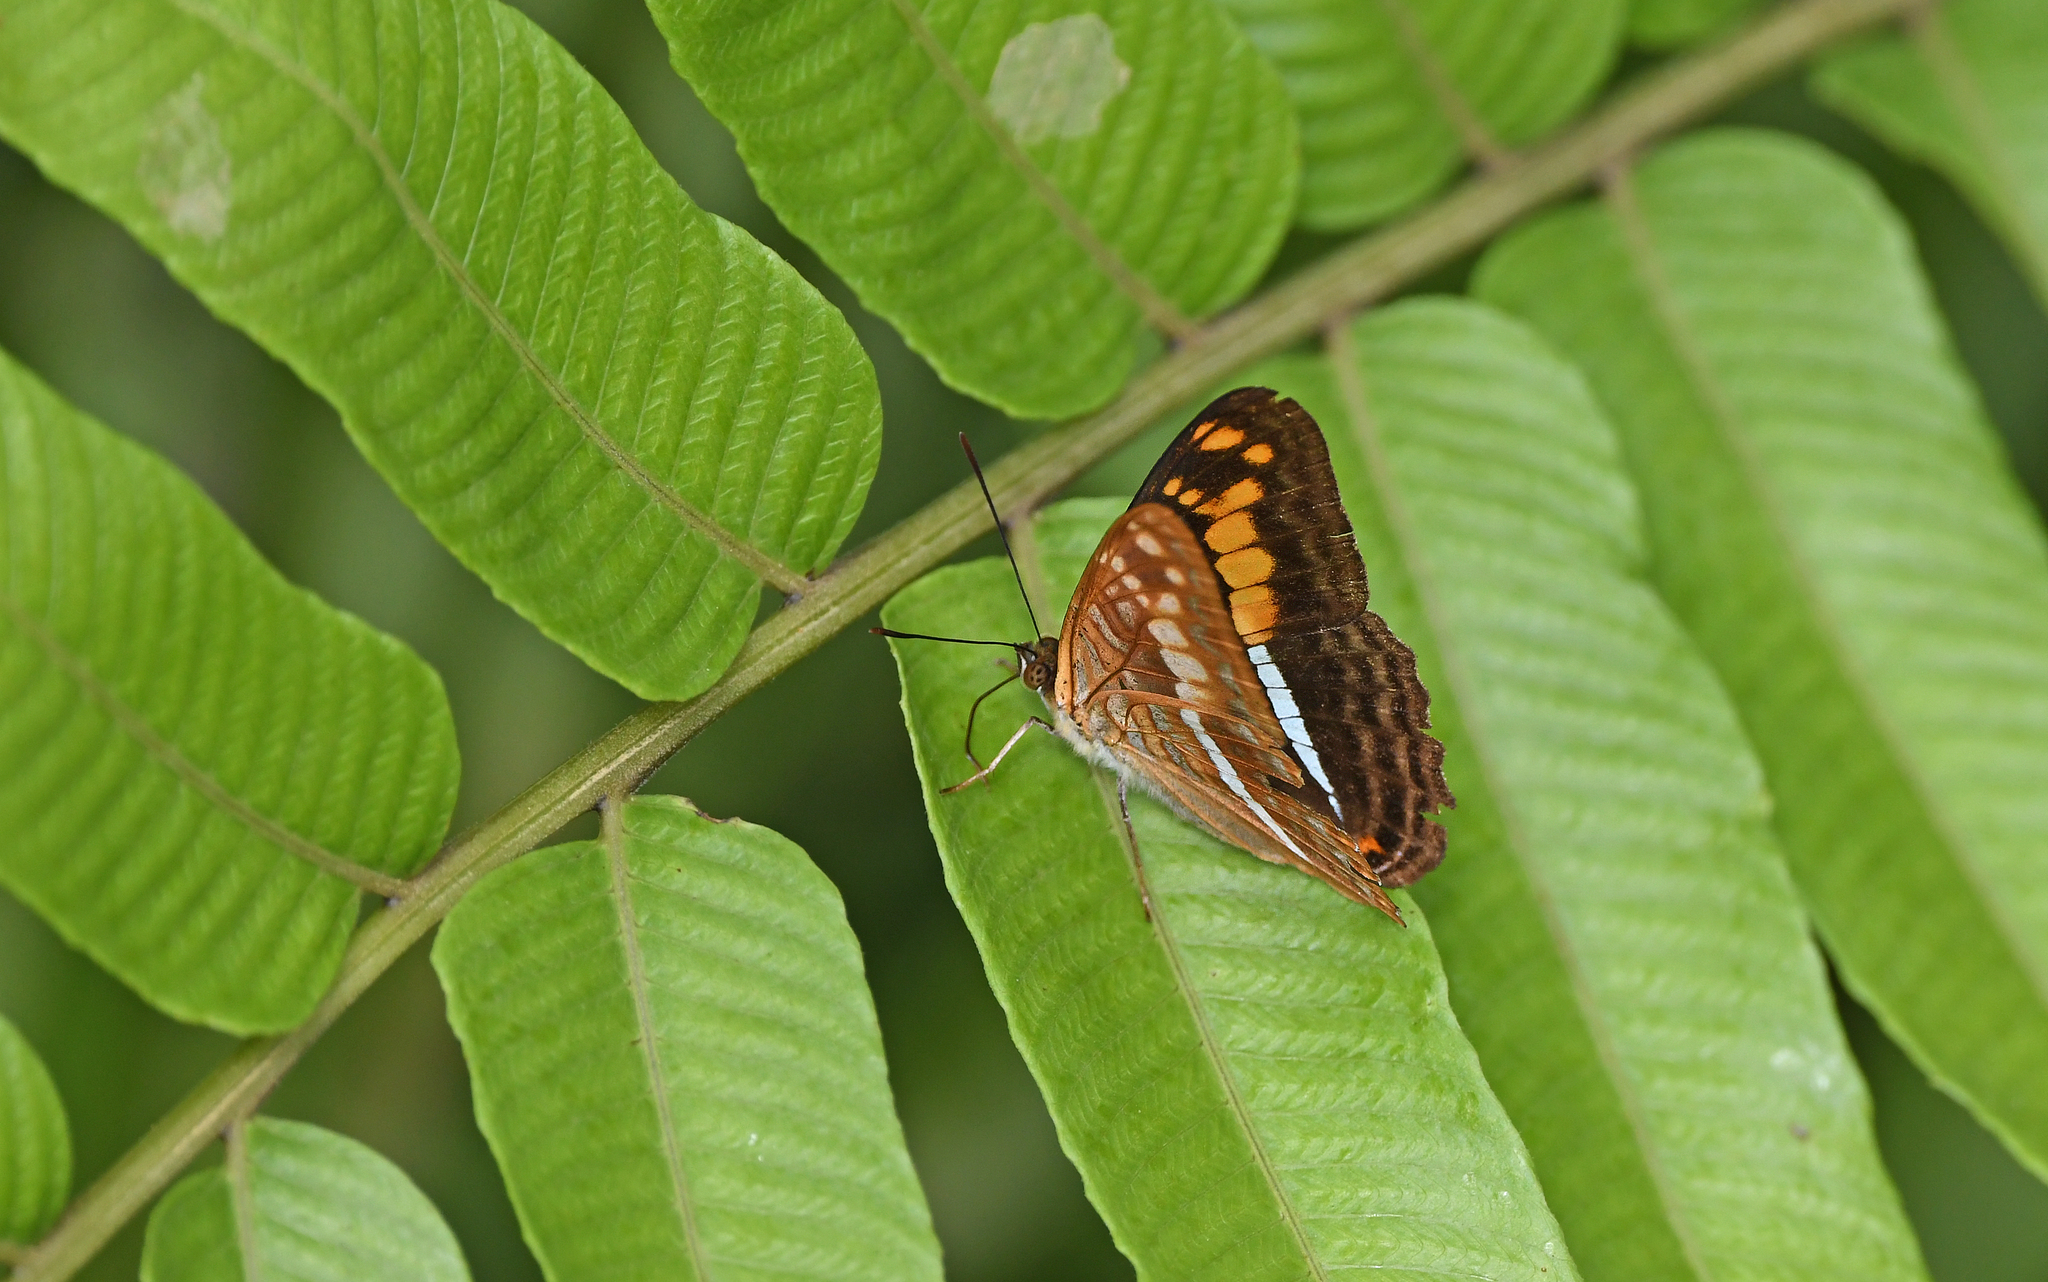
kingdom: Animalia
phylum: Arthropoda
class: Insecta
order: Lepidoptera
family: Nymphalidae
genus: Limenitis
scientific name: Limenitis justina
